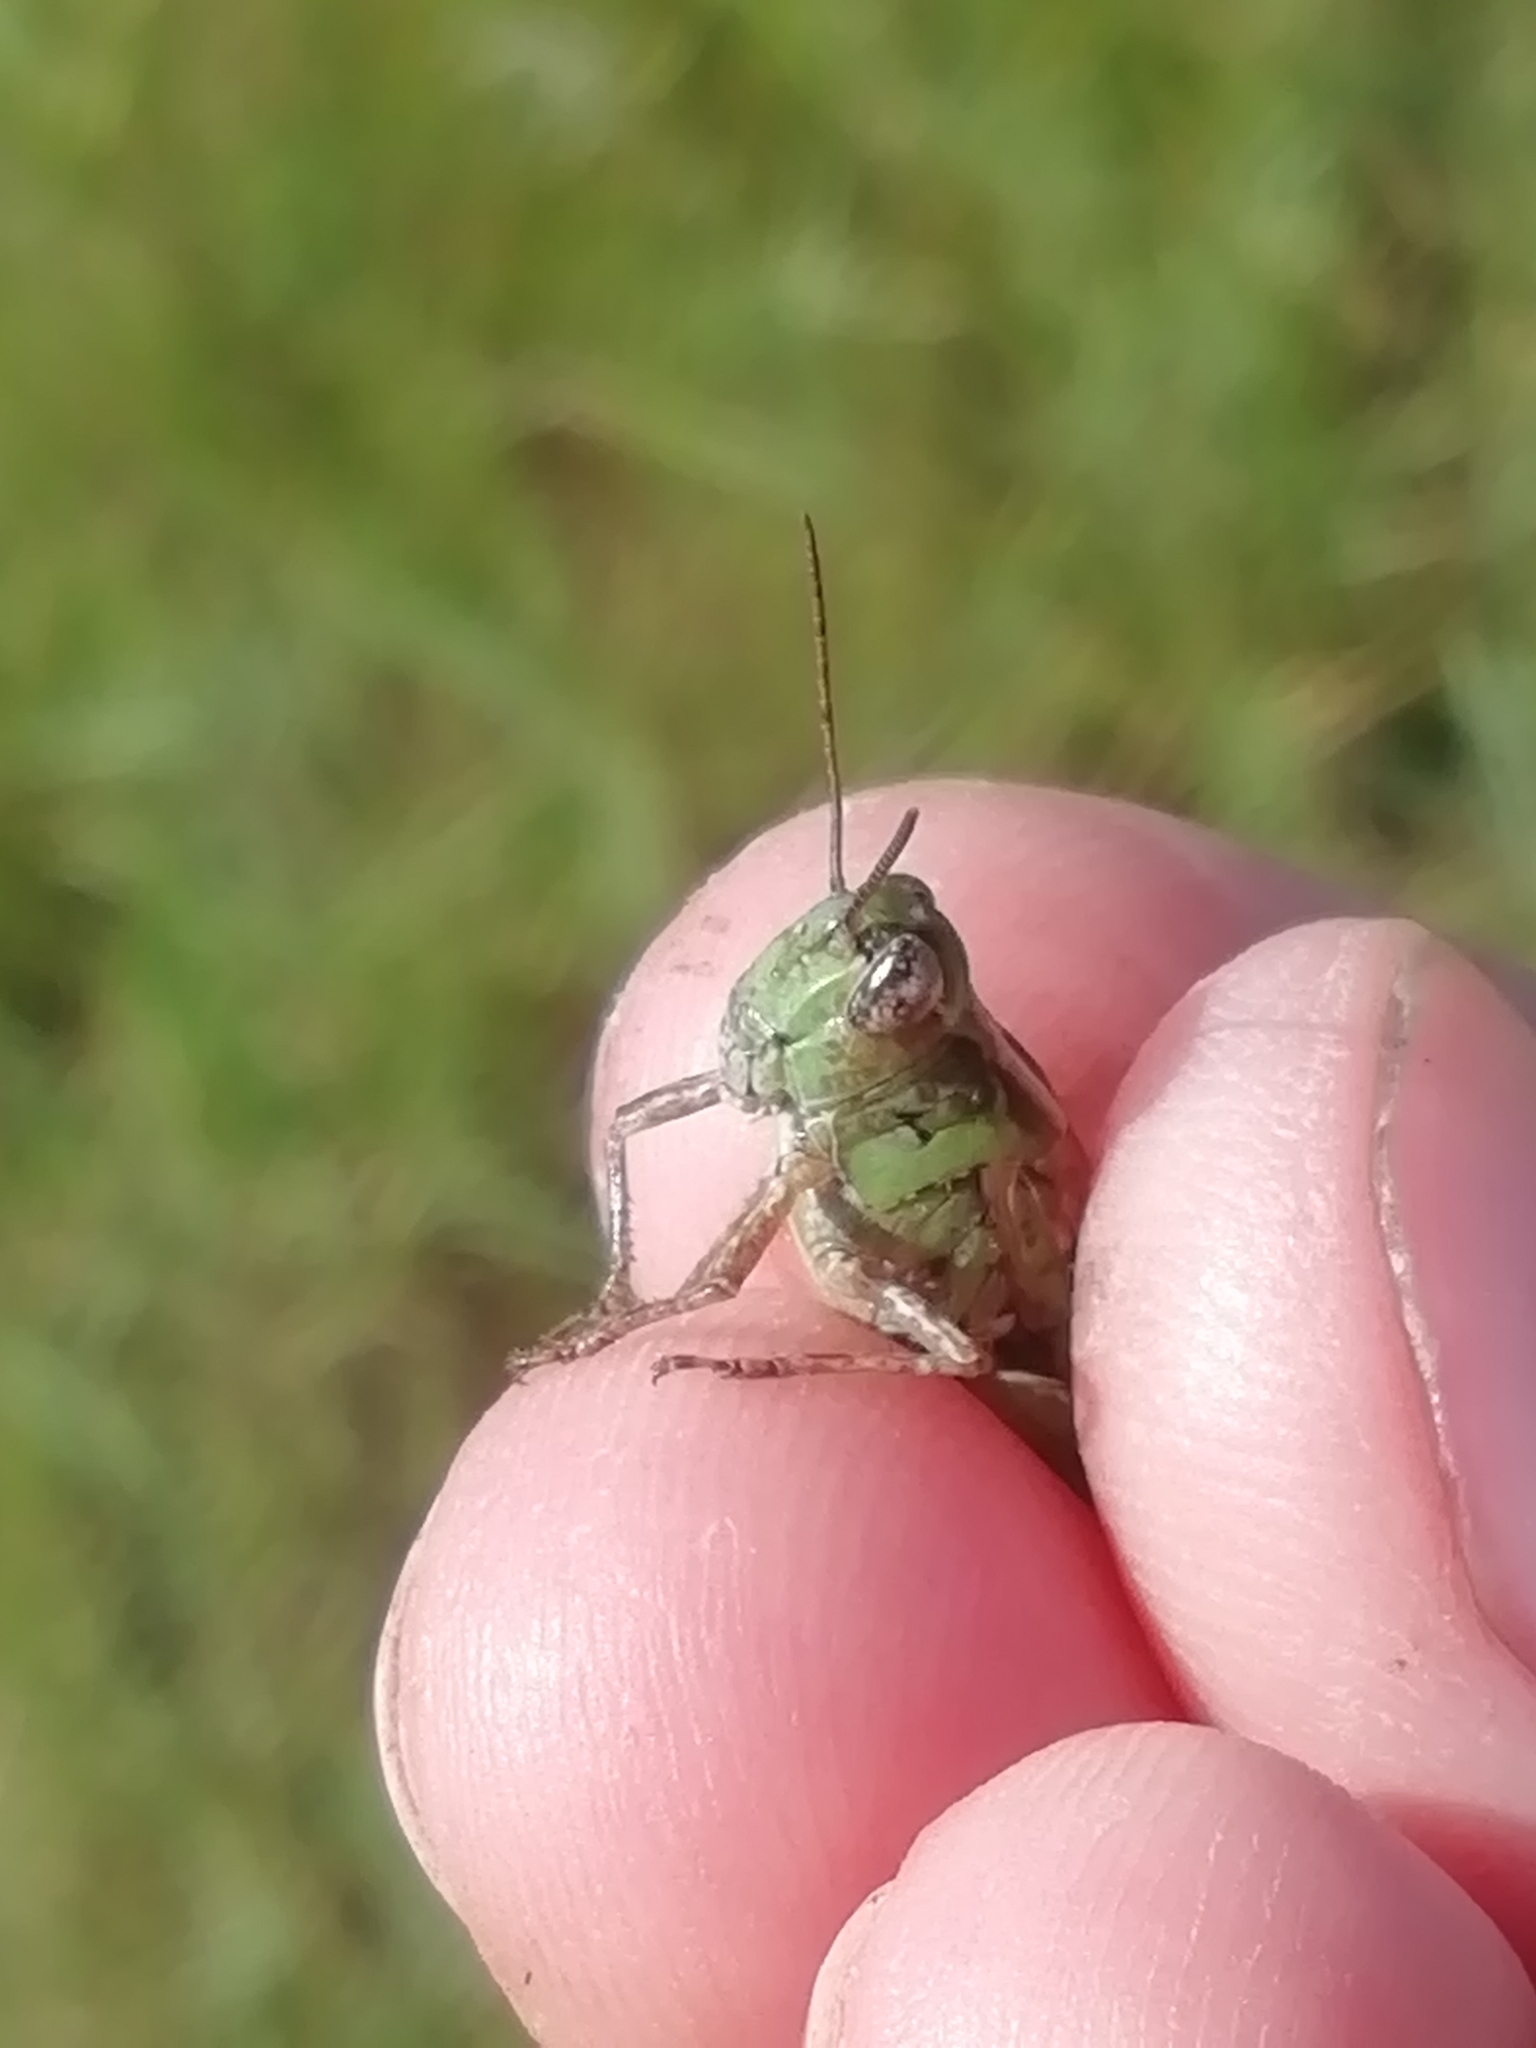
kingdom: Animalia
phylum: Arthropoda
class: Insecta
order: Orthoptera
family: Acrididae
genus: Aiolopus
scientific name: Aiolopus thalassinus
